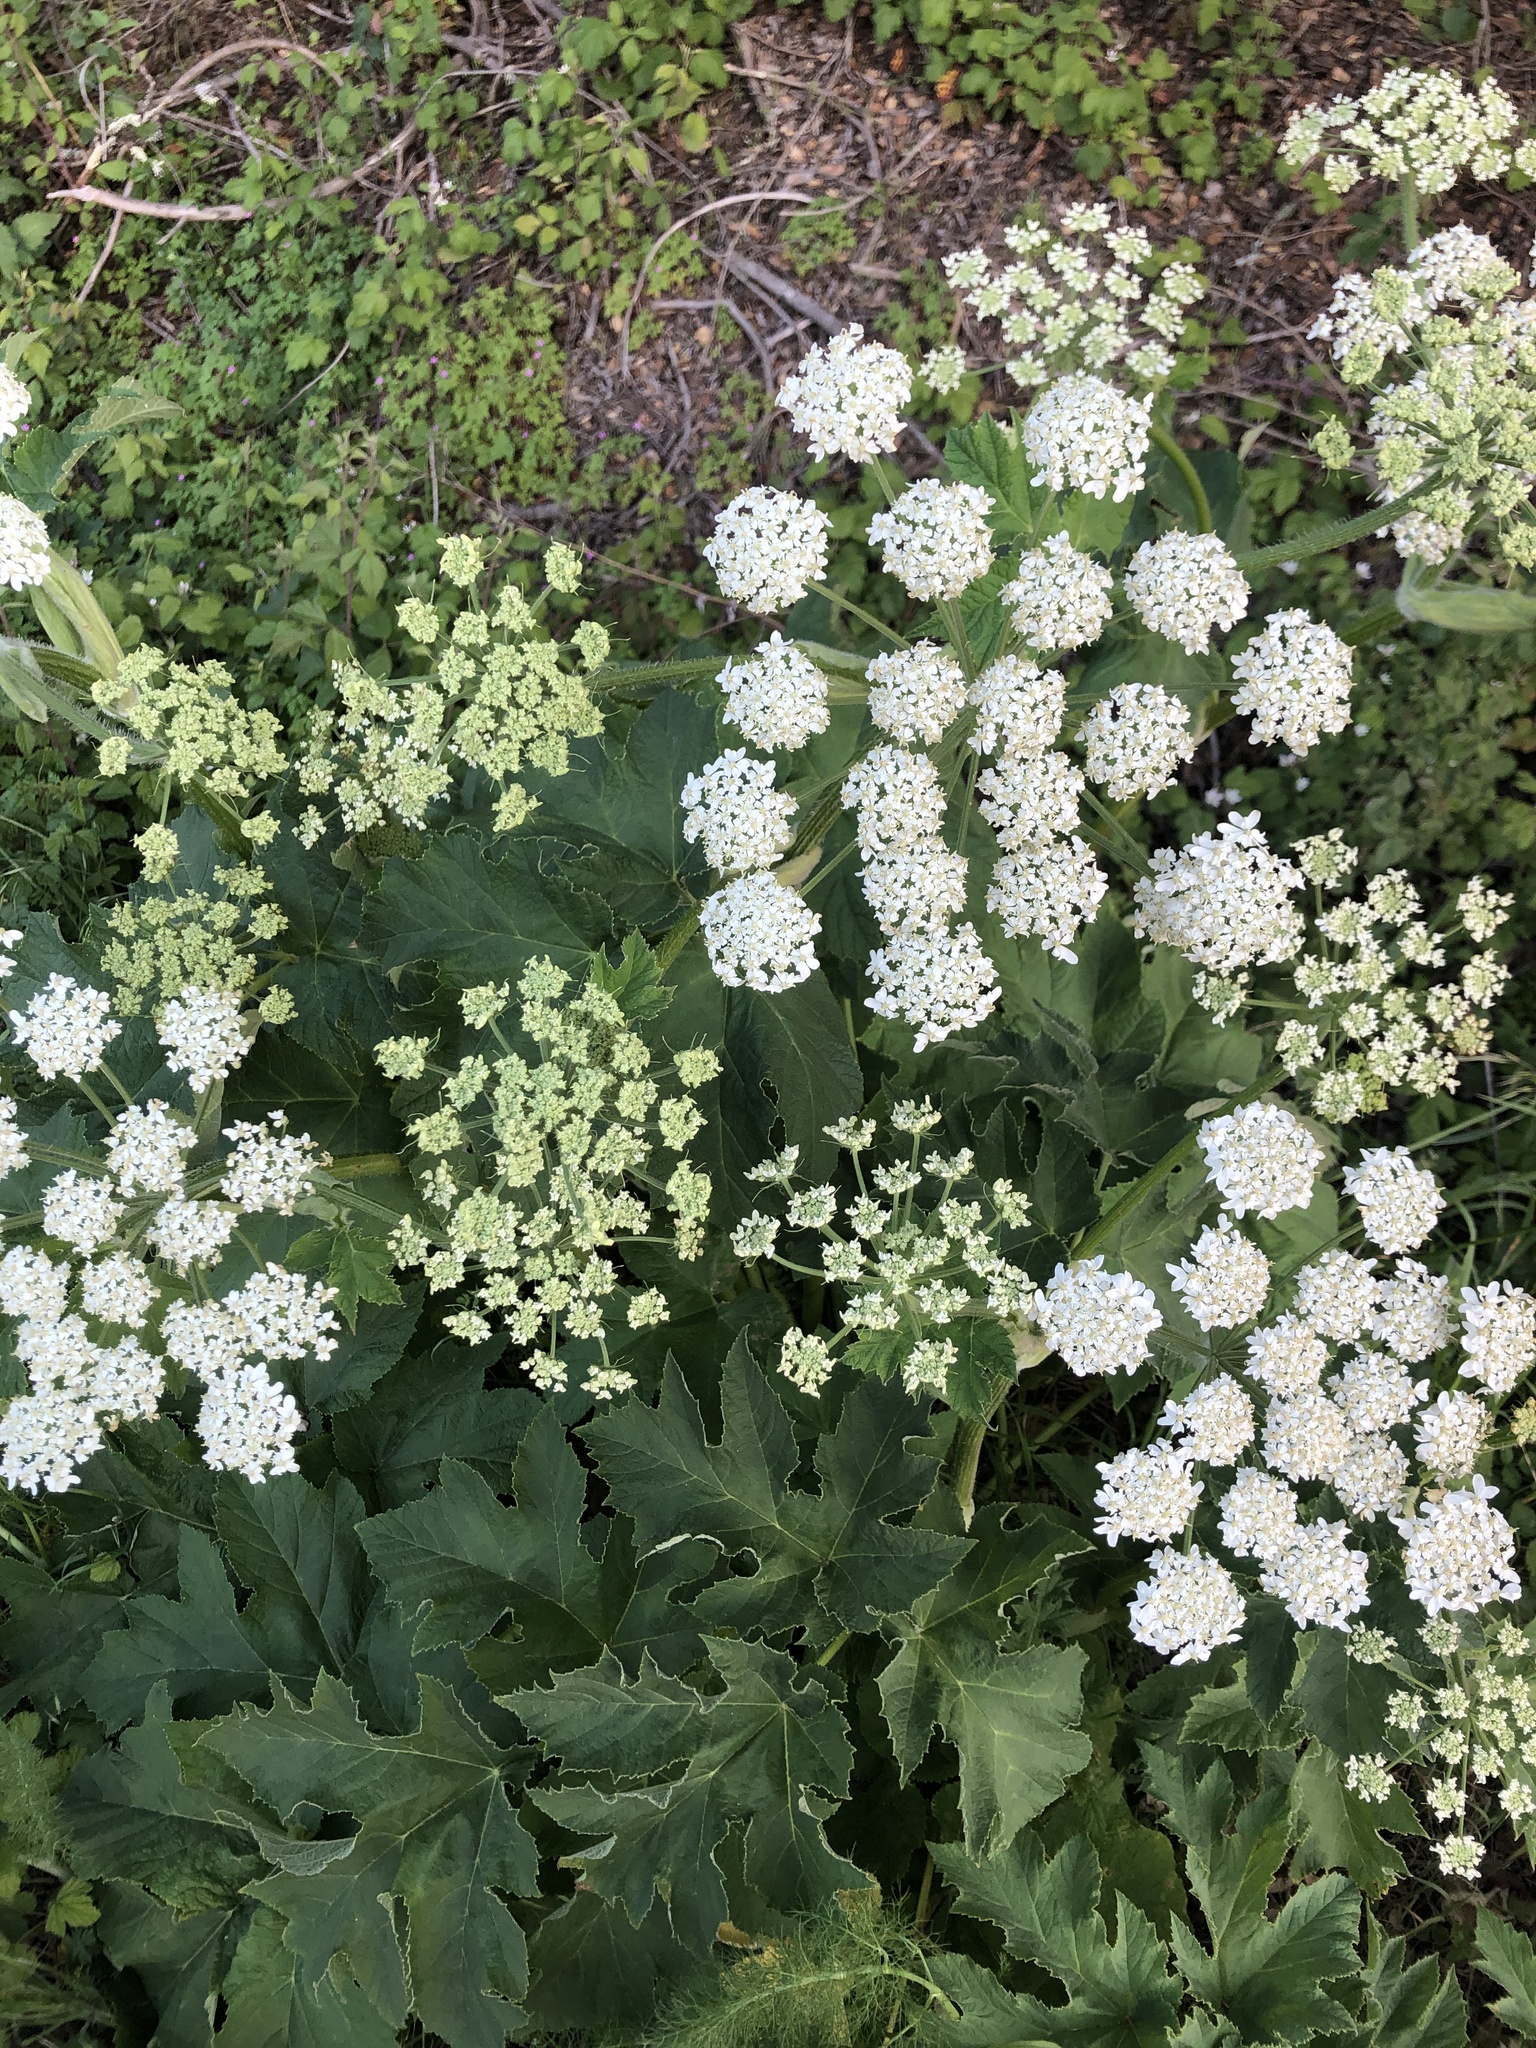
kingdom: Plantae
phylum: Tracheophyta
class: Magnoliopsida
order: Apiales
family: Apiaceae
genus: Heracleum
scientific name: Heracleum maximum
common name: American cow parsnip
